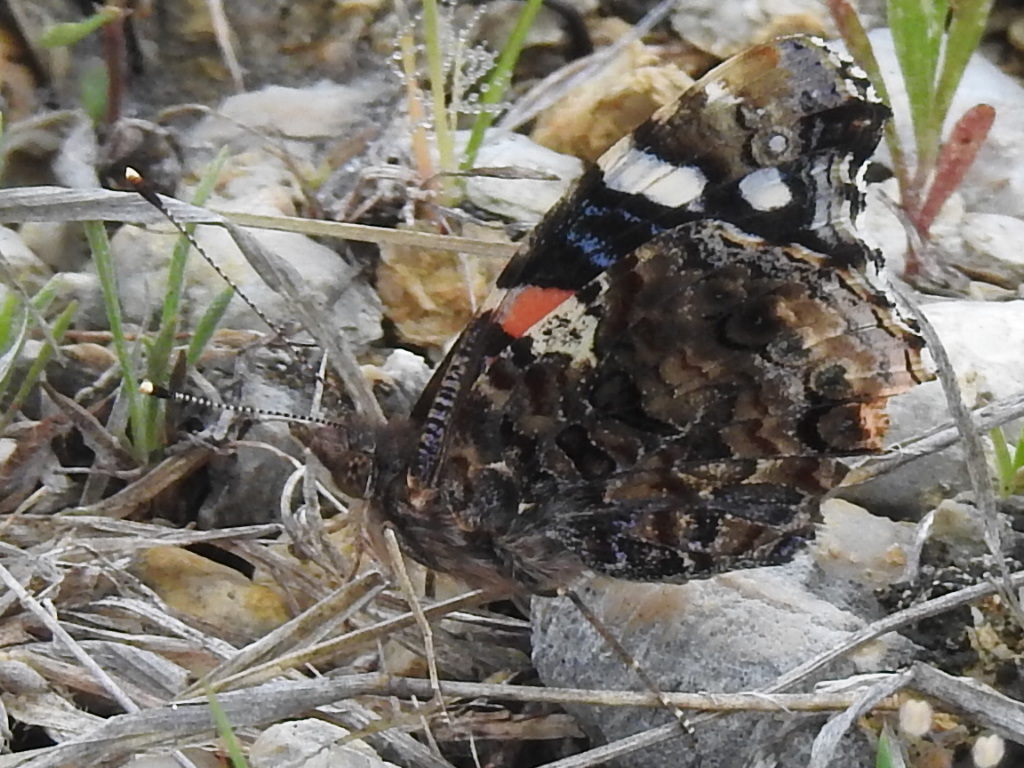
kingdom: Animalia
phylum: Arthropoda
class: Insecta
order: Lepidoptera
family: Nymphalidae
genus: Vanessa
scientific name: Vanessa atalanta
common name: Red admiral
